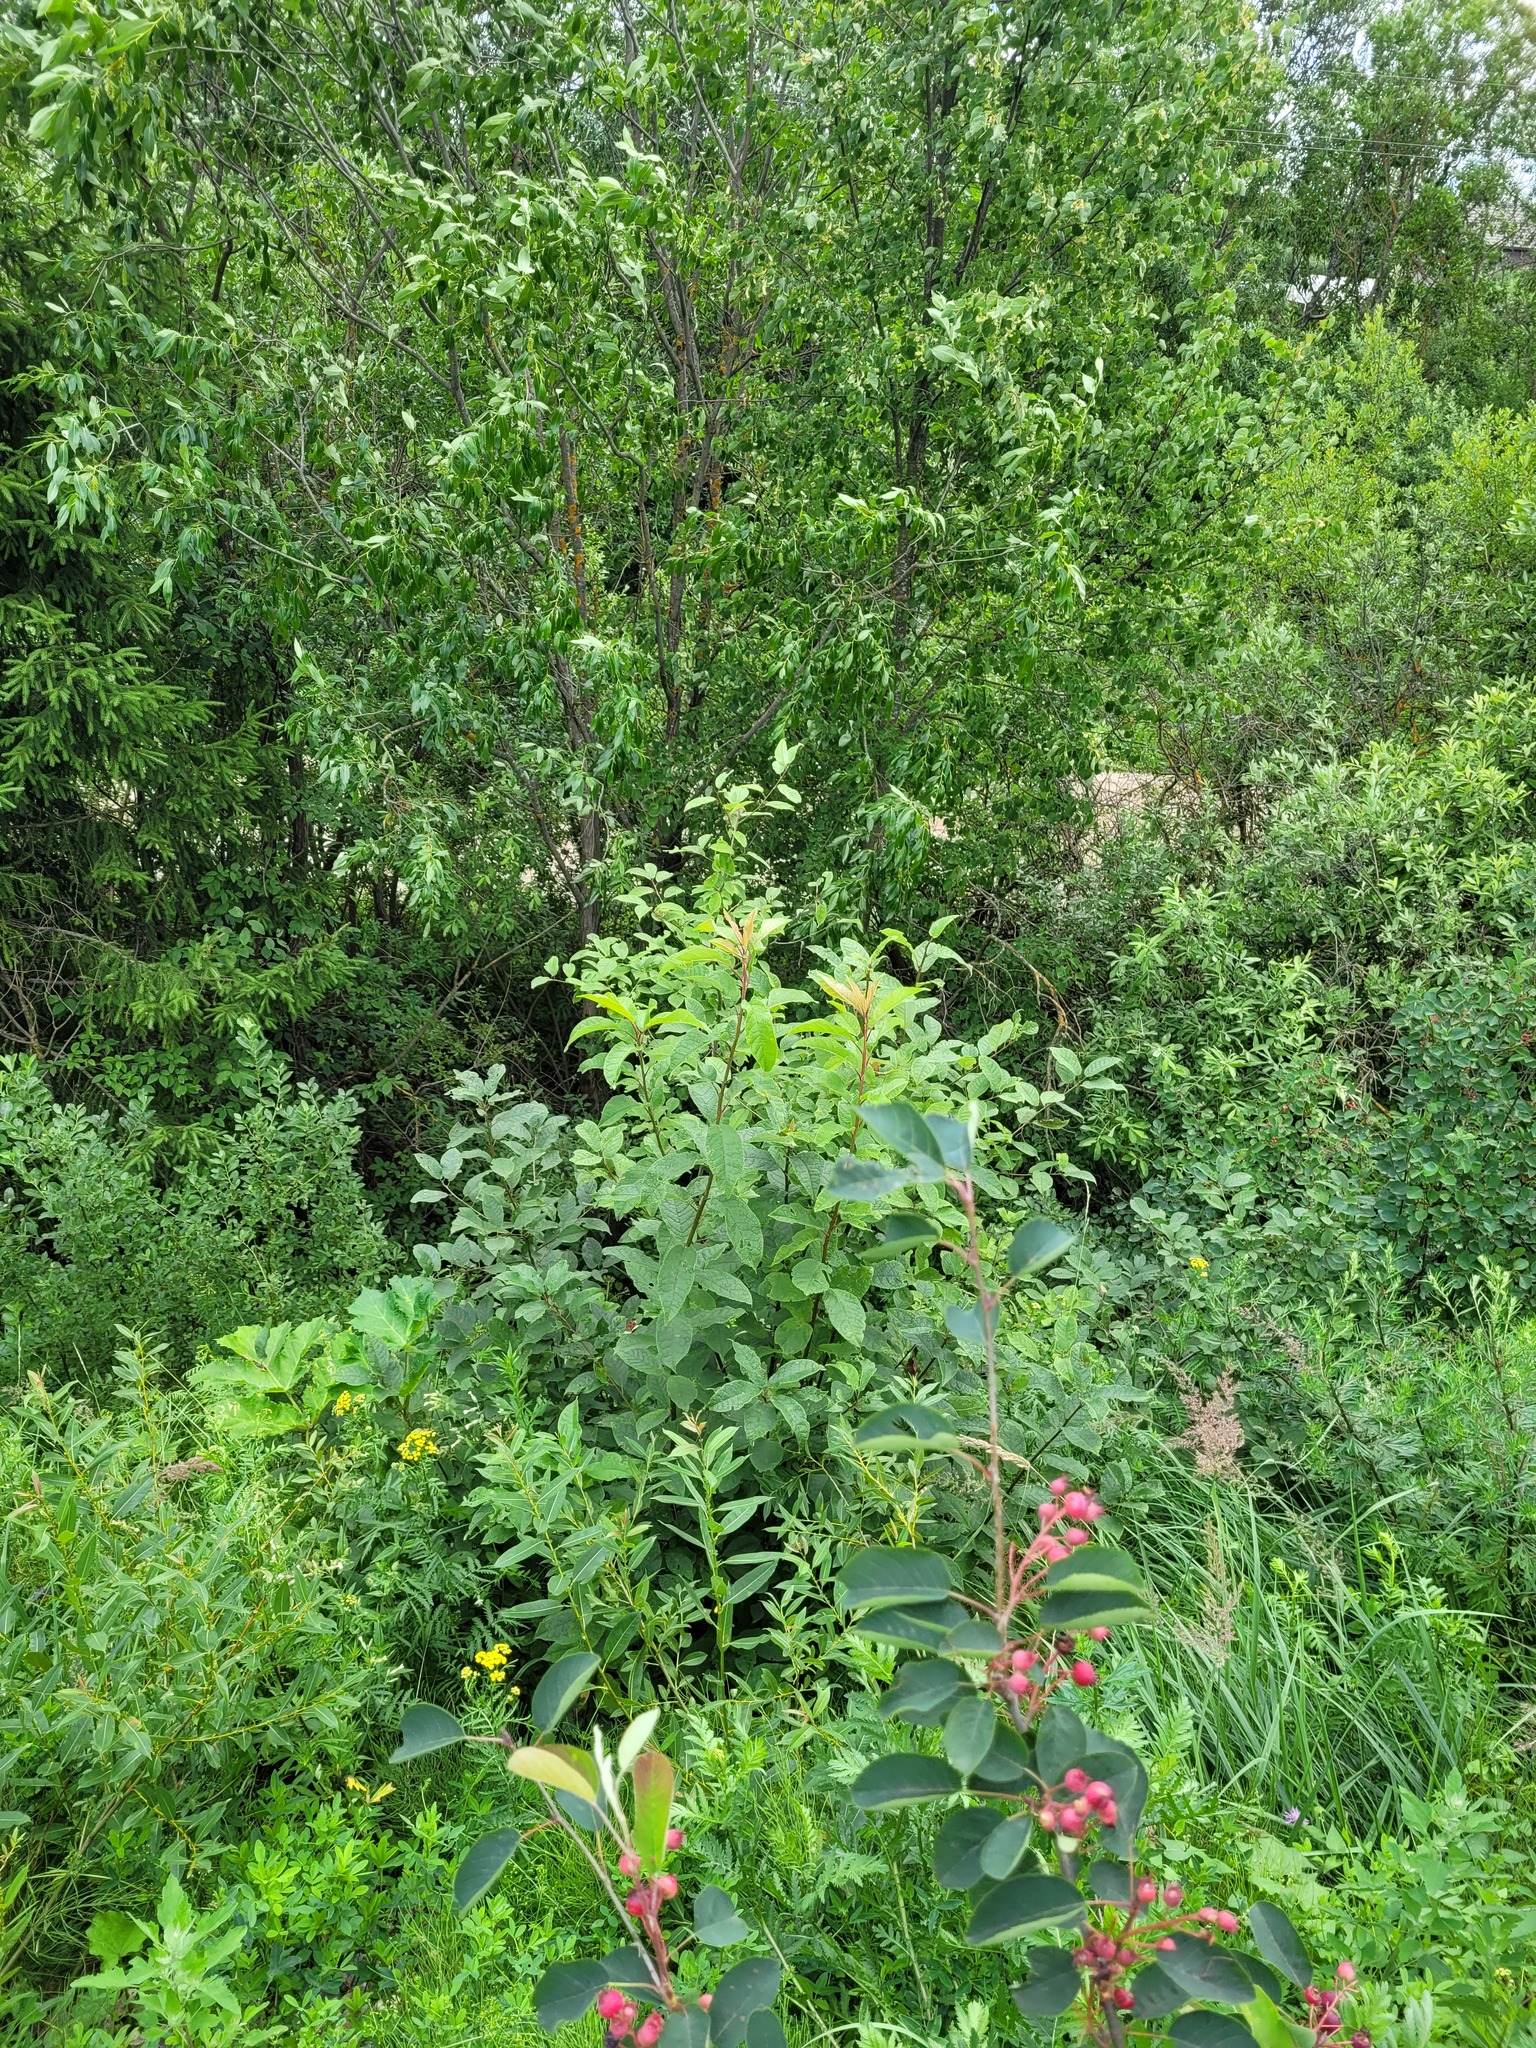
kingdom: Plantae
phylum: Tracheophyta
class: Magnoliopsida
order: Rosales
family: Rosaceae
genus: Prunus
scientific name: Prunus padus
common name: Bird cherry
